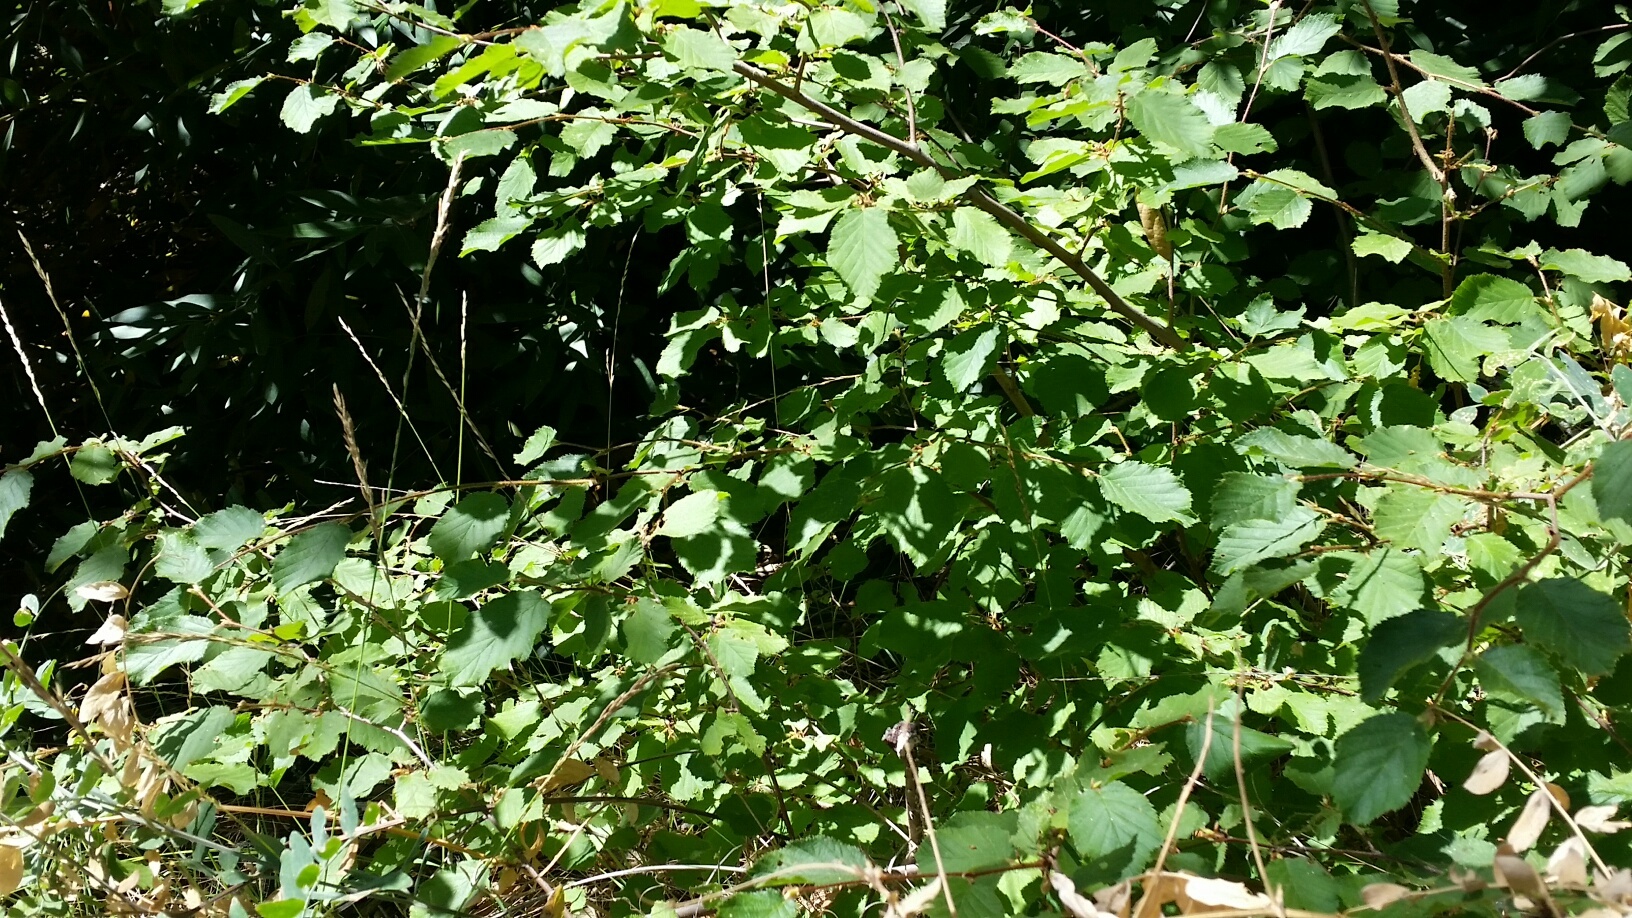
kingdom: Plantae
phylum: Tracheophyta
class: Magnoliopsida
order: Fagales
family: Betulaceae
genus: Corylus
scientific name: Corylus cornuta
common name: Beaked hazel
